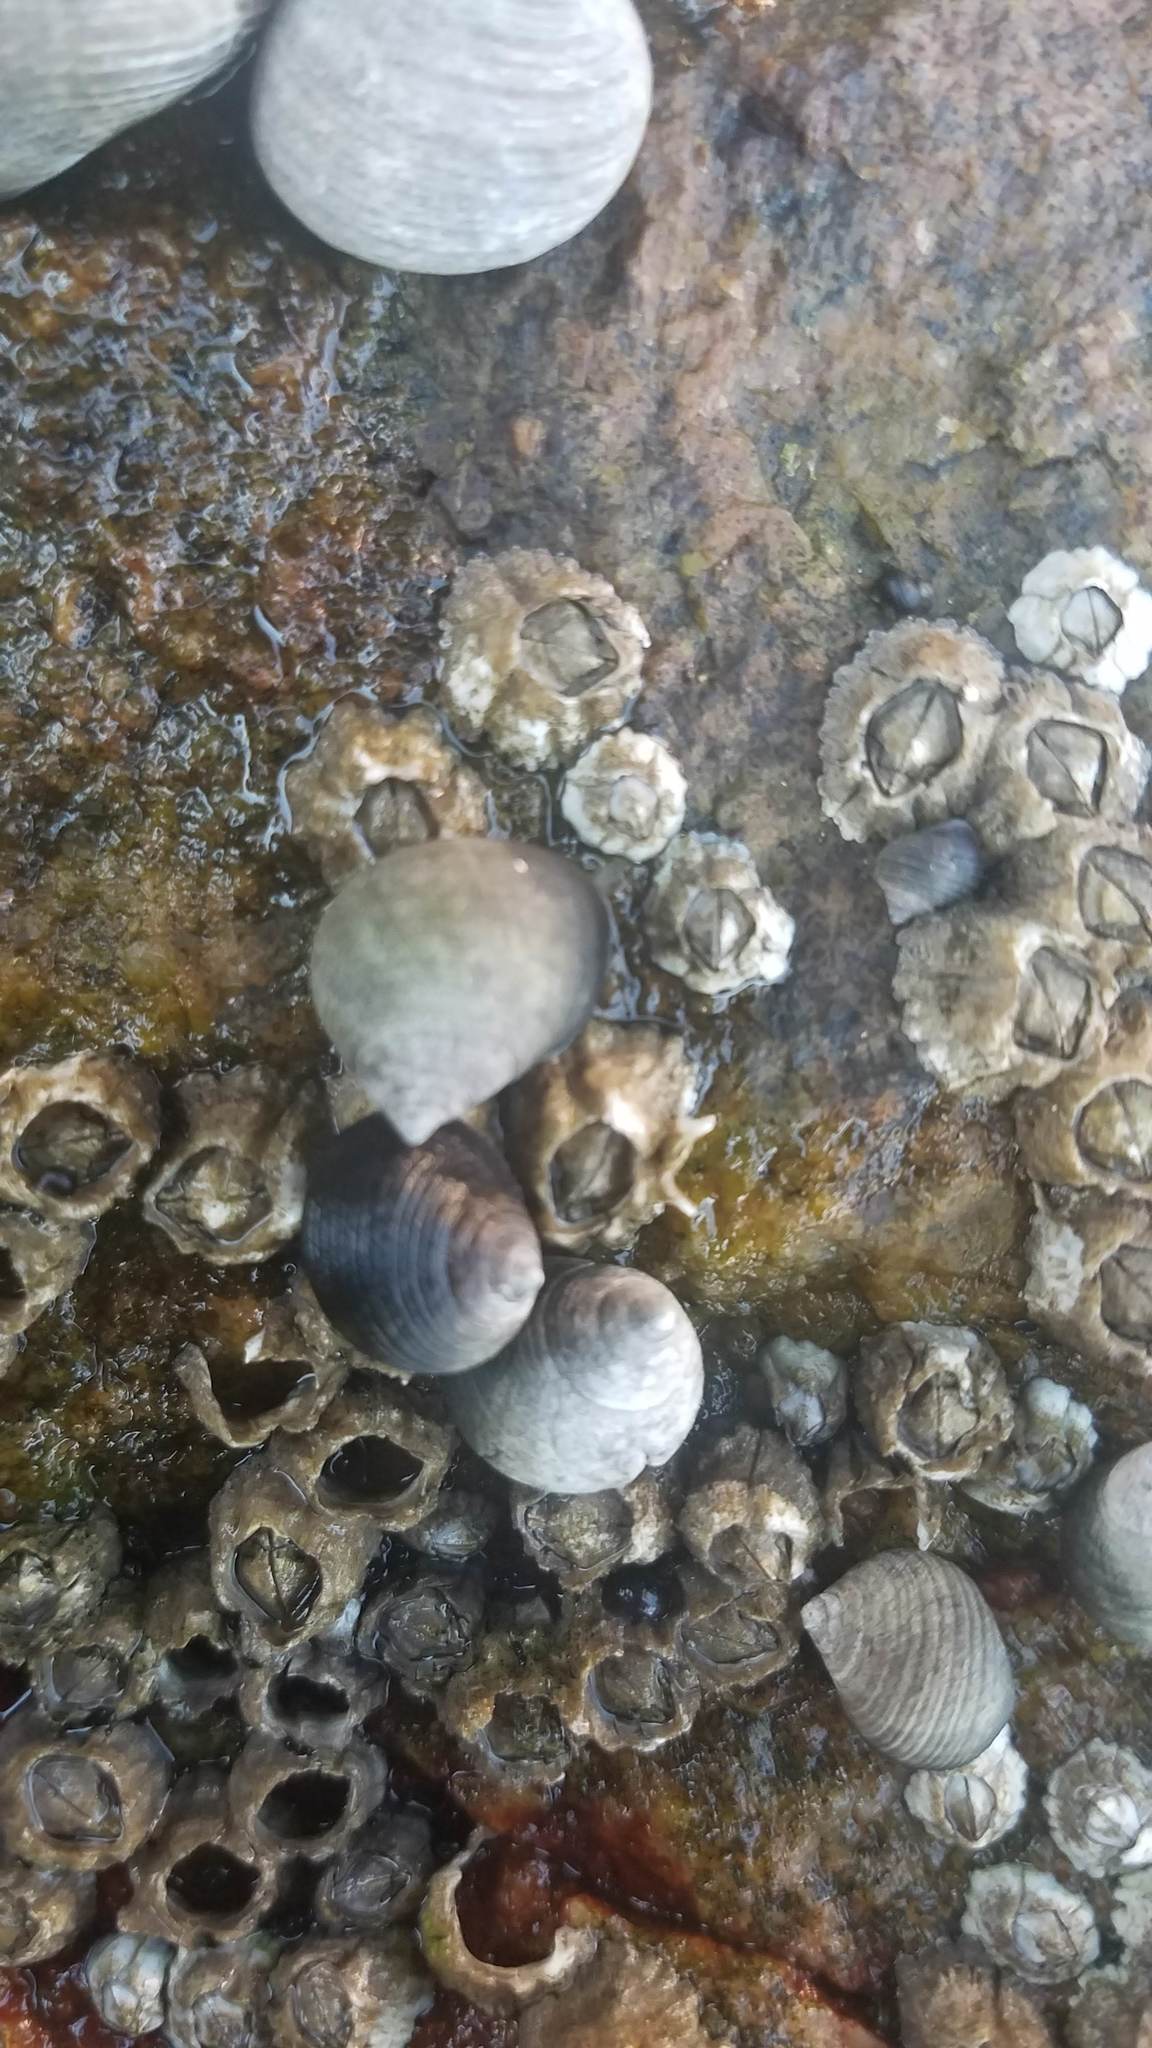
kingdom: Animalia
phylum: Mollusca
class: Gastropoda
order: Littorinimorpha
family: Littorinidae
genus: Littorina
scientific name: Littorina littorea
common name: Common periwinkle
